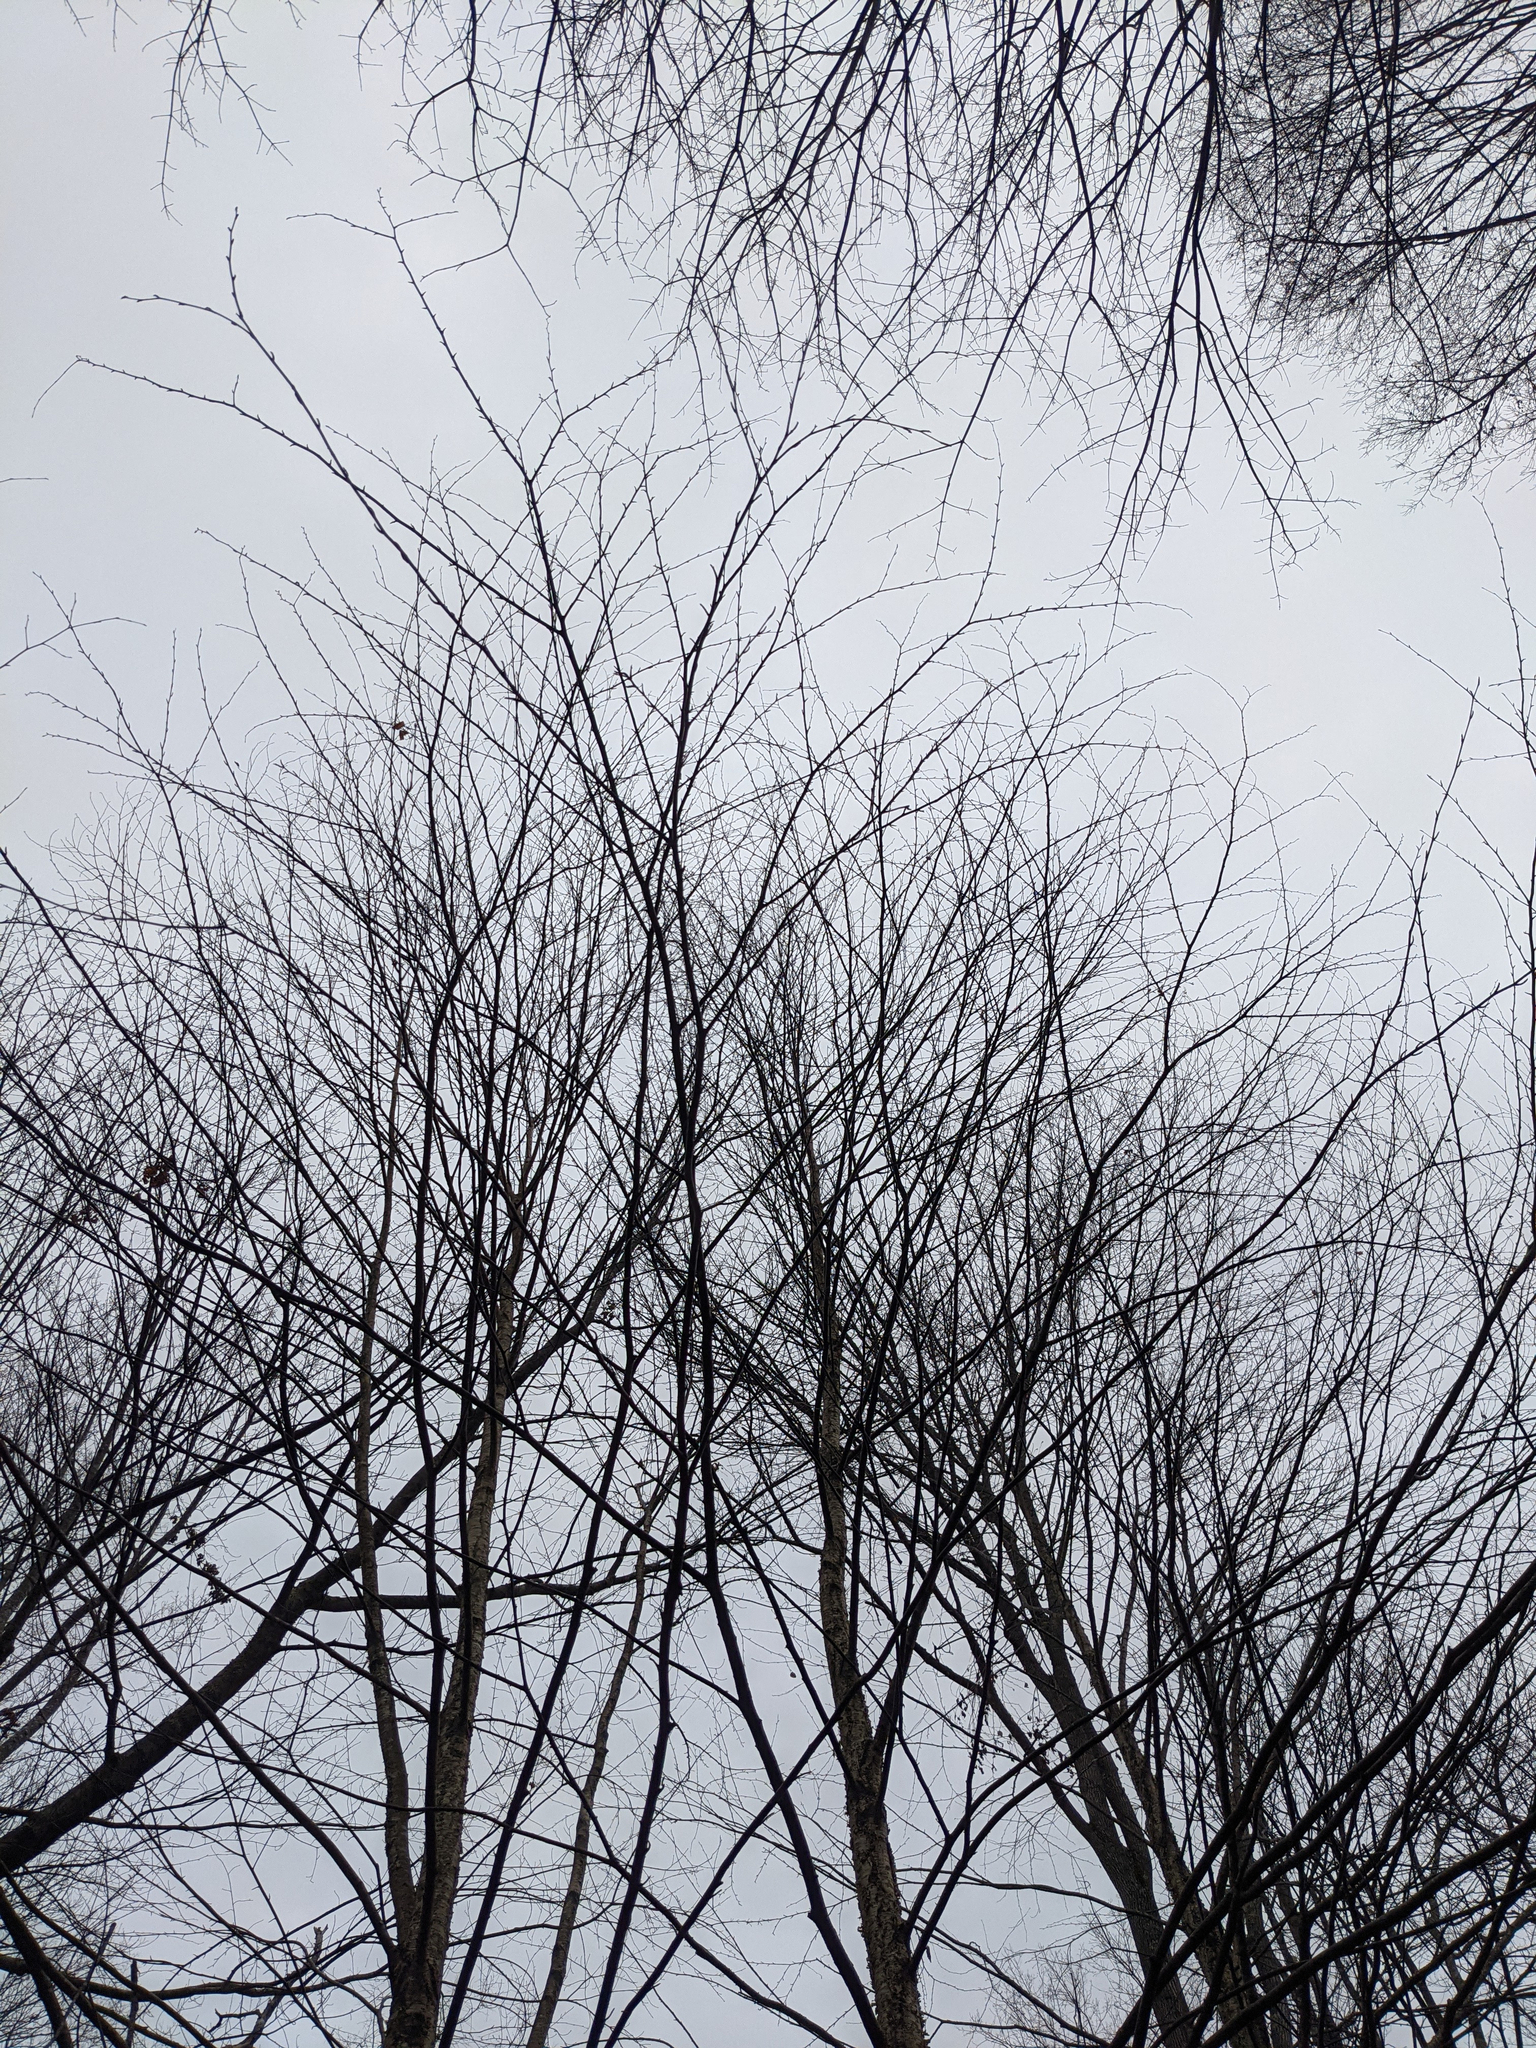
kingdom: Plantae
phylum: Tracheophyta
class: Magnoliopsida
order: Fagales
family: Betulaceae
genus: Betula
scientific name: Betula alleghaniensis
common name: Yellow birch
